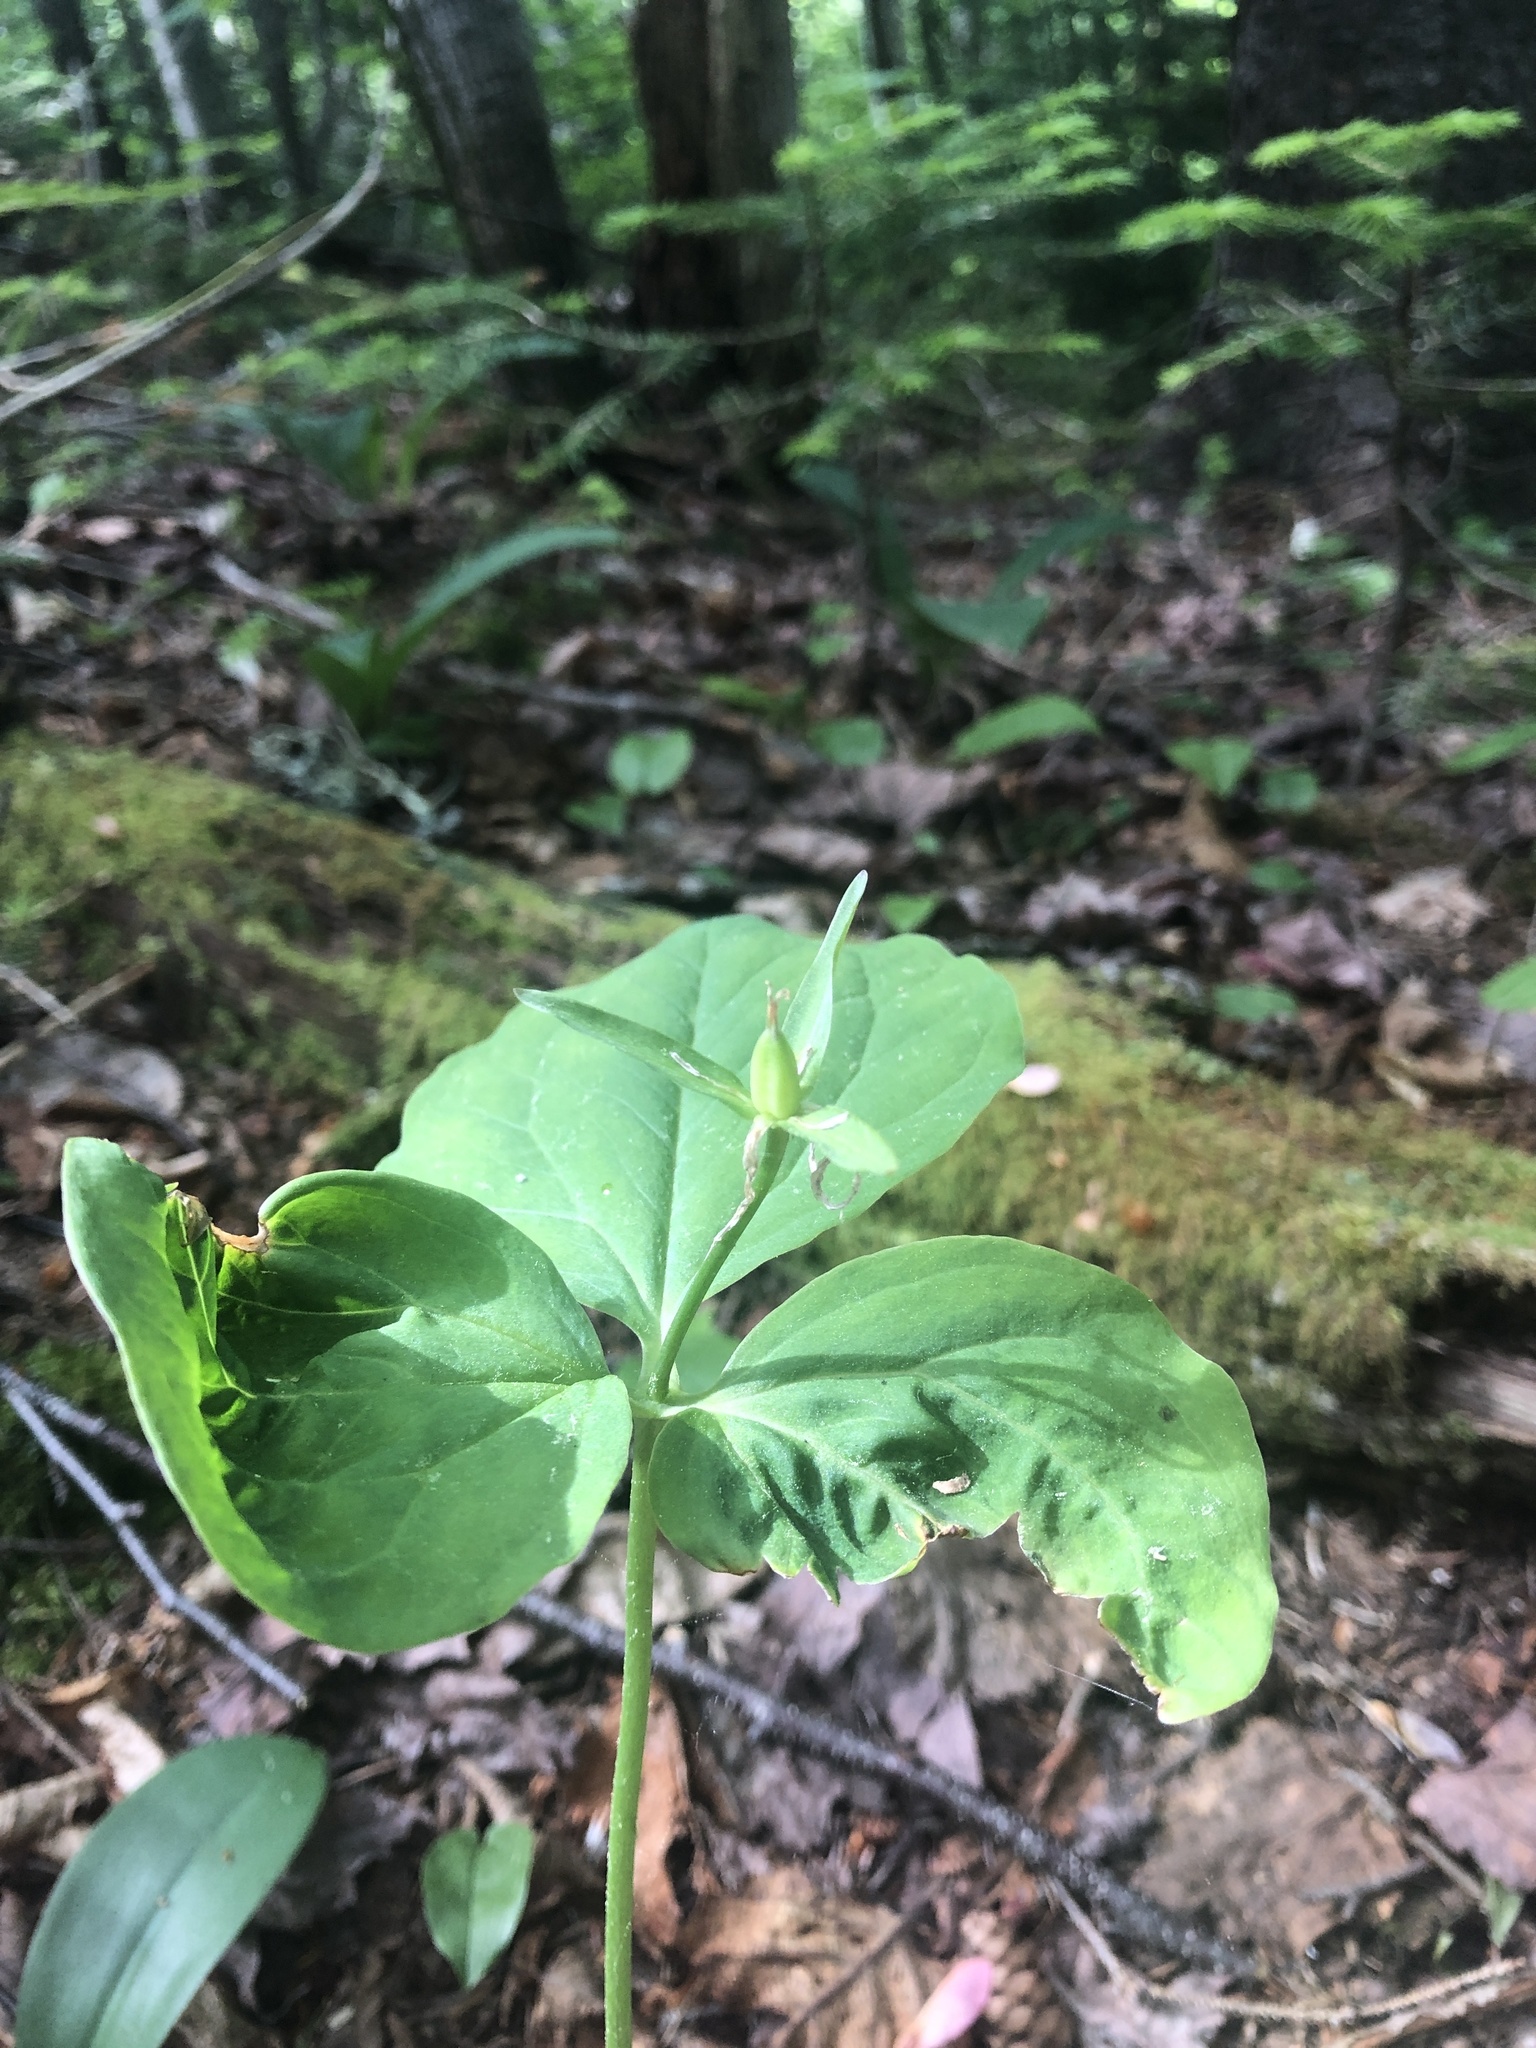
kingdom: Plantae
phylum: Tracheophyta
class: Liliopsida
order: Liliales
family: Melanthiaceae
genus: Trillium
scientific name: Trillium undulatum
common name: Paint trillium
